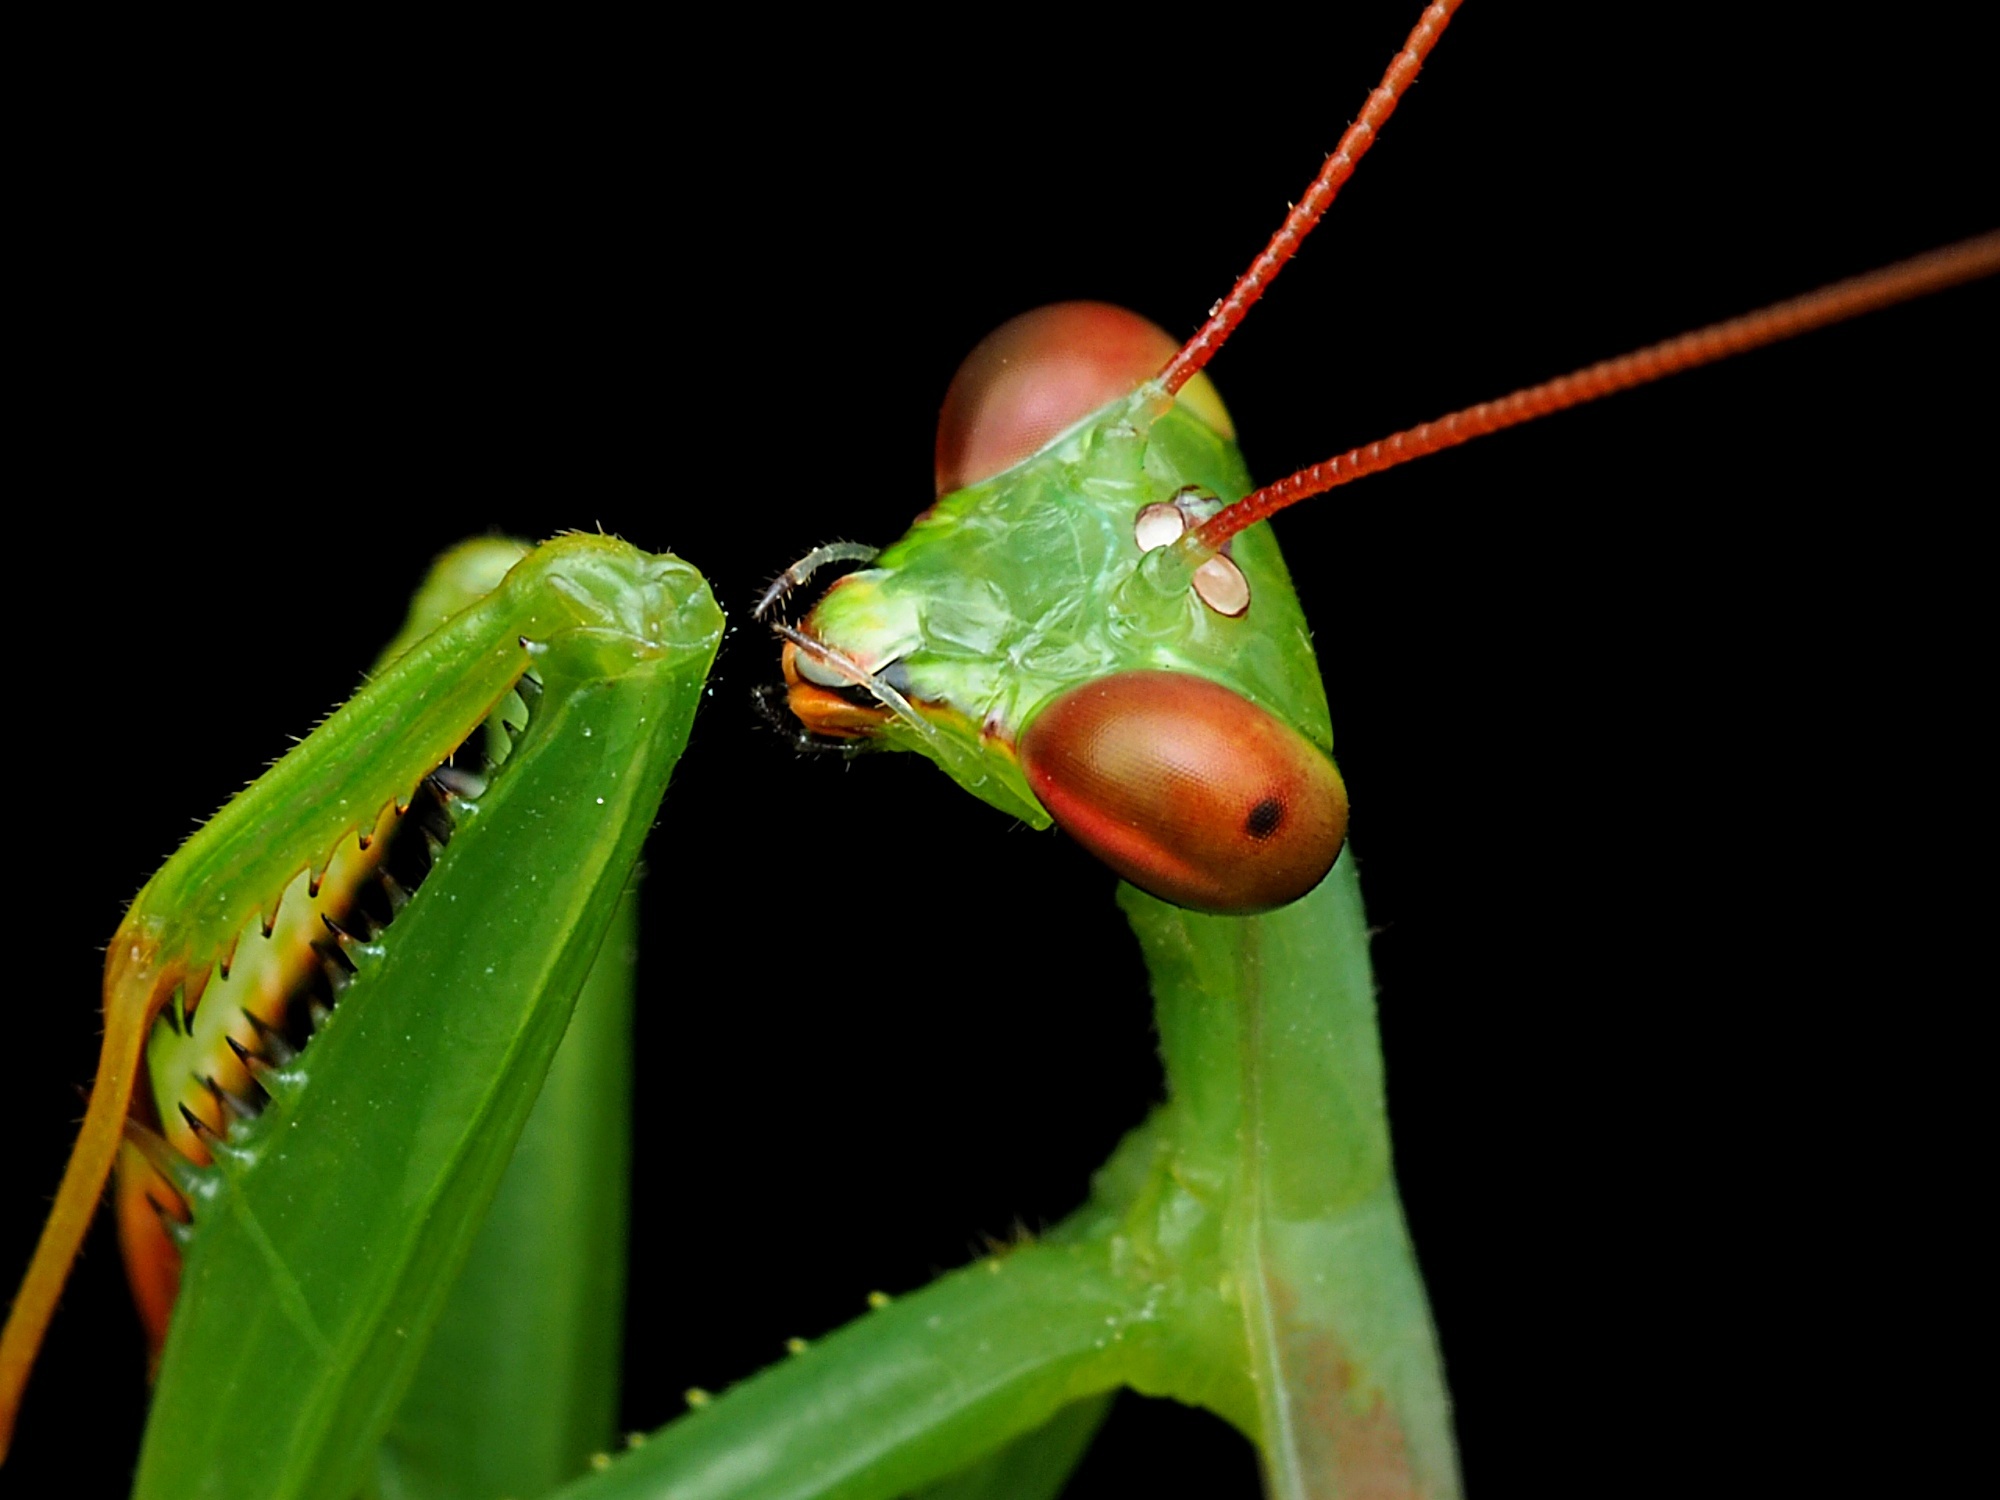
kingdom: Animalia
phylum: Arthropoda
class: Insecta
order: Mantodea
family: Miomantidae
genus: Miomantis
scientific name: Miomantis caffra
